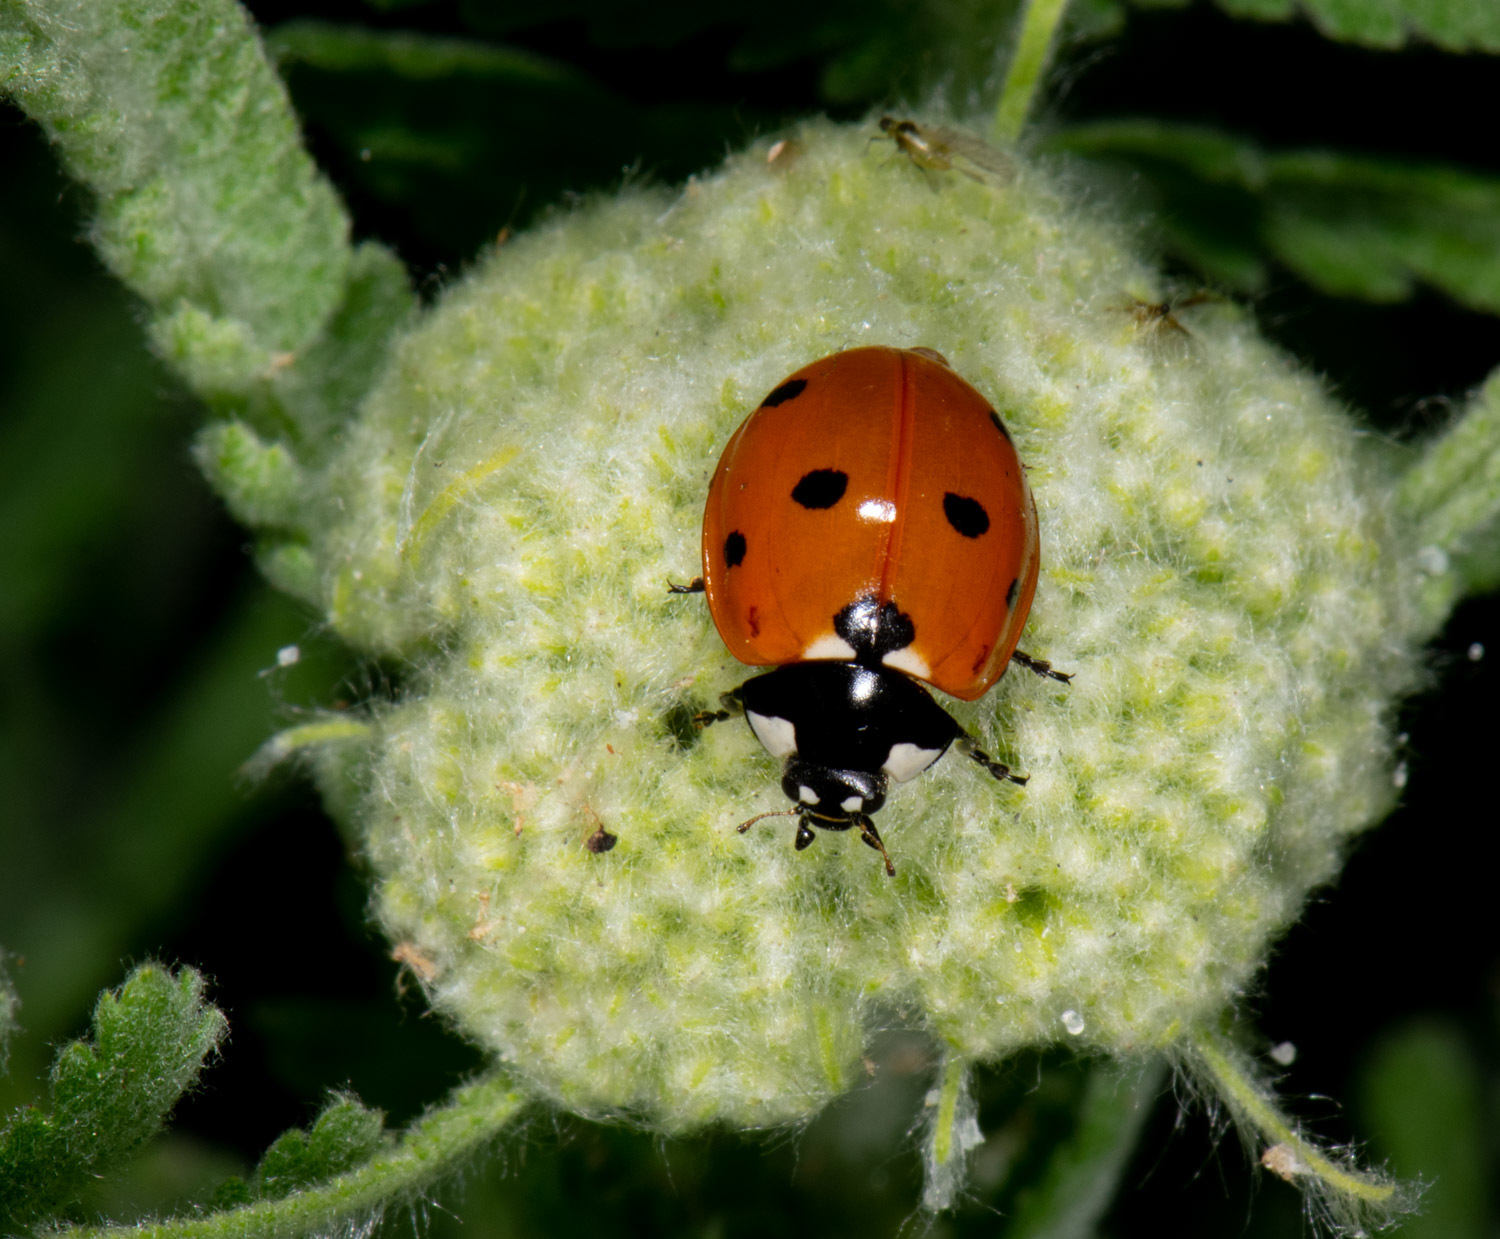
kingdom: Animalia
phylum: Arthropoda
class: Insecta
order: Coleoptera
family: Coccinellidae
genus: Coccinella
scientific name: Coccinella septempunctata
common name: Sevenspotted lady beetle
